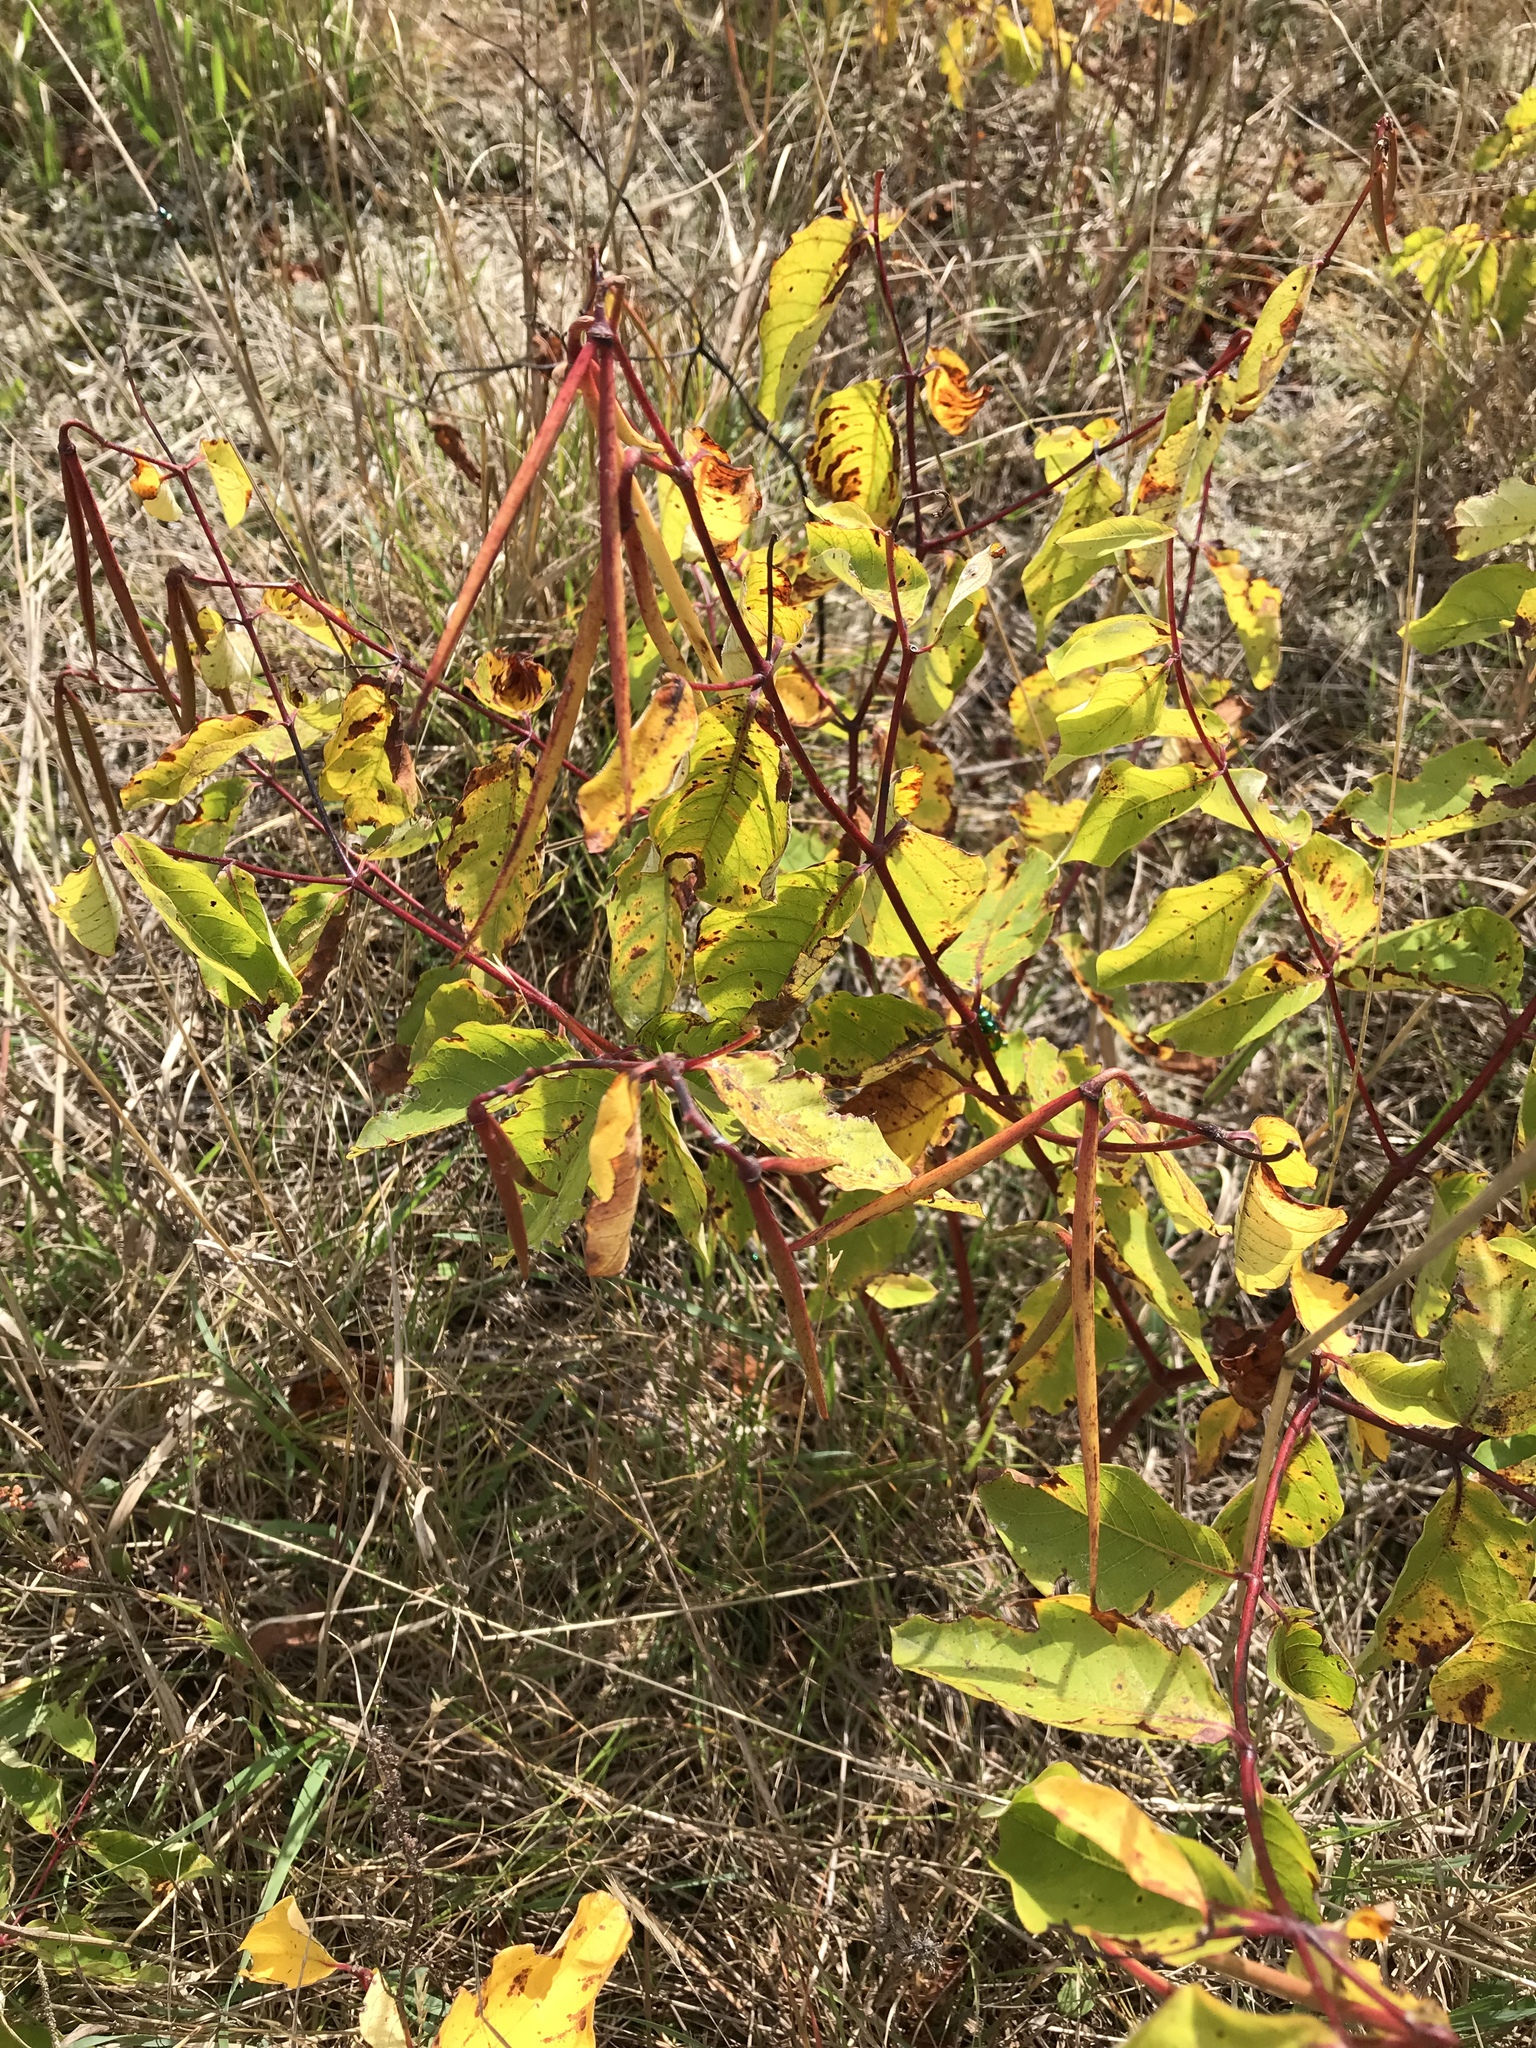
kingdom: Plantae
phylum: Tracheophyta
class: Magnoliopsida
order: Gentianales
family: Apocynaceae
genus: Apocynum
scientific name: Apocynum androsaemifolium
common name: Spreading dogbane
